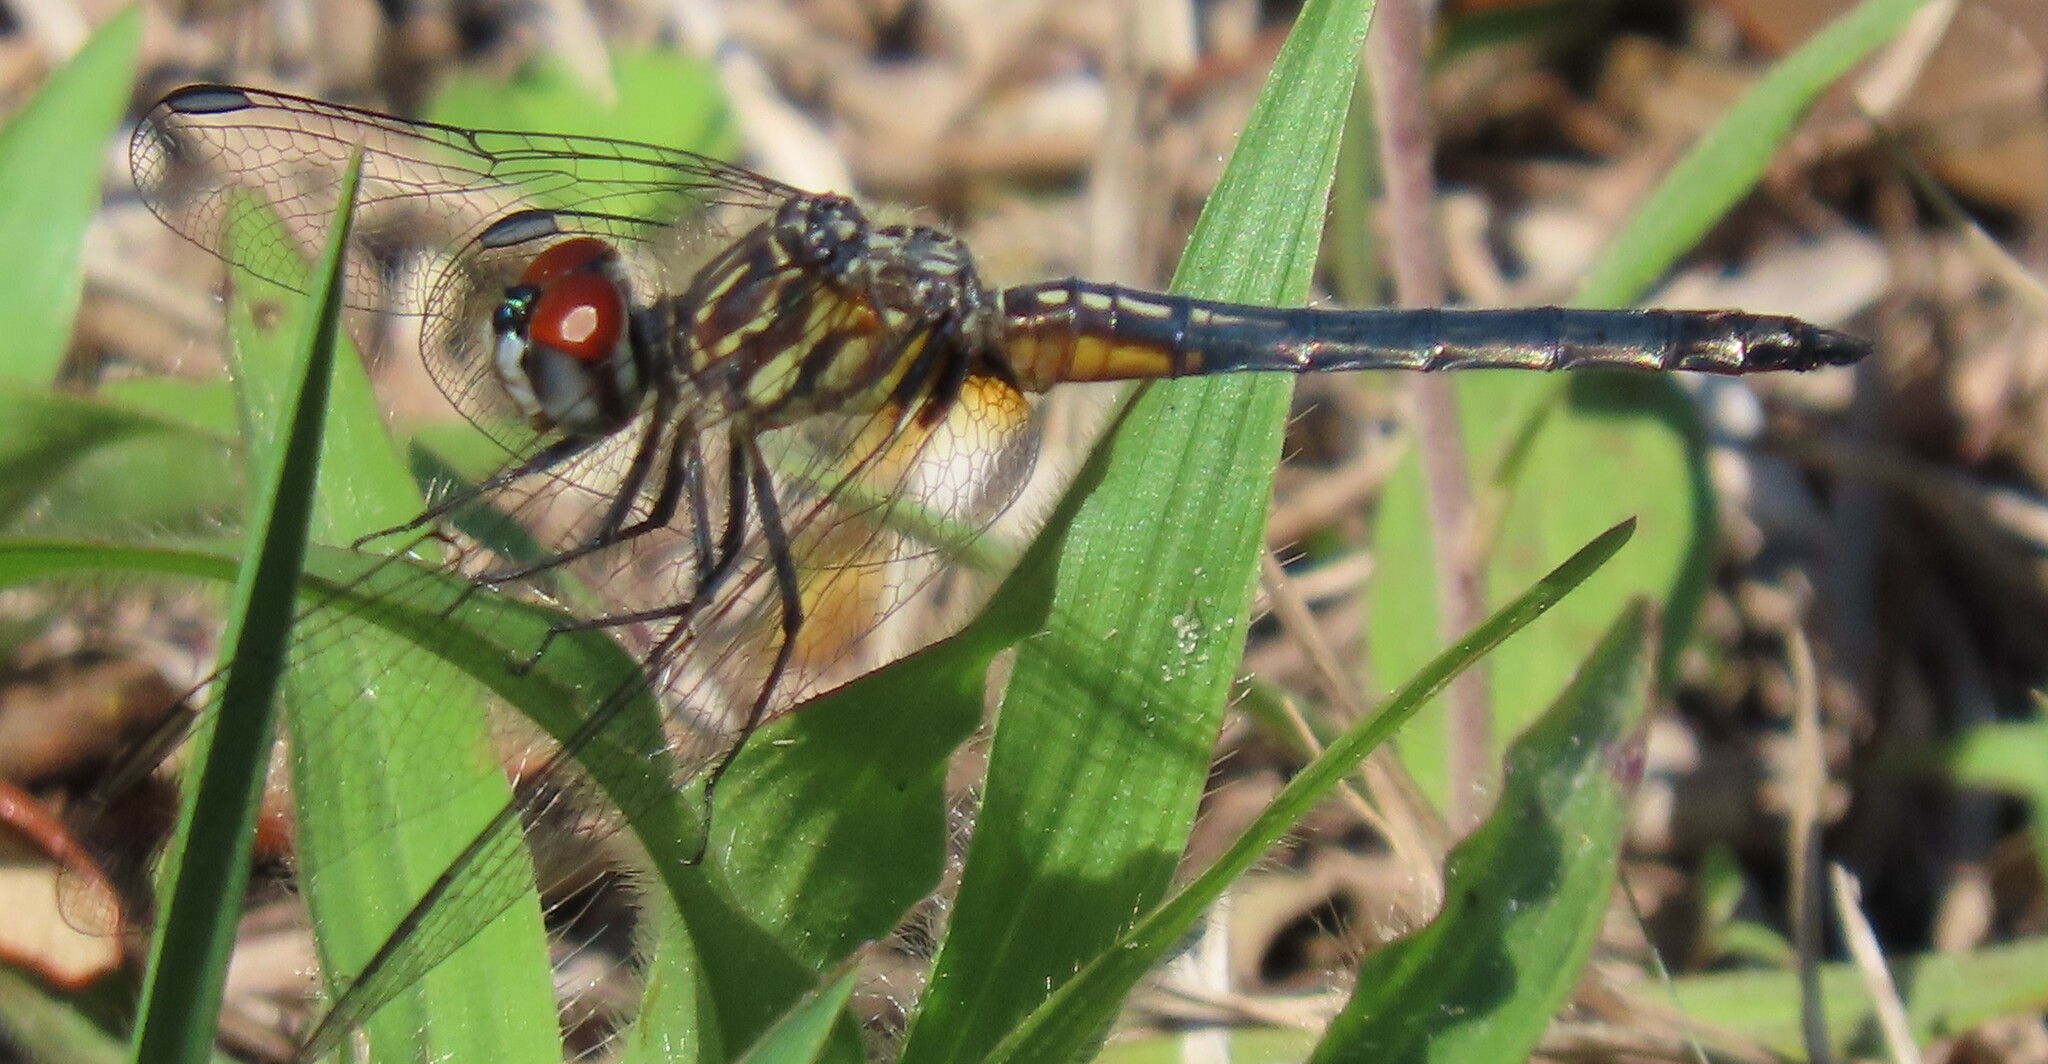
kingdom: Animalia
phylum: Arthropoda
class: Insecta
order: Odonata
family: Libellulidae
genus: Pachydiplax
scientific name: Pachydiplax longipennis
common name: Blue dasher
